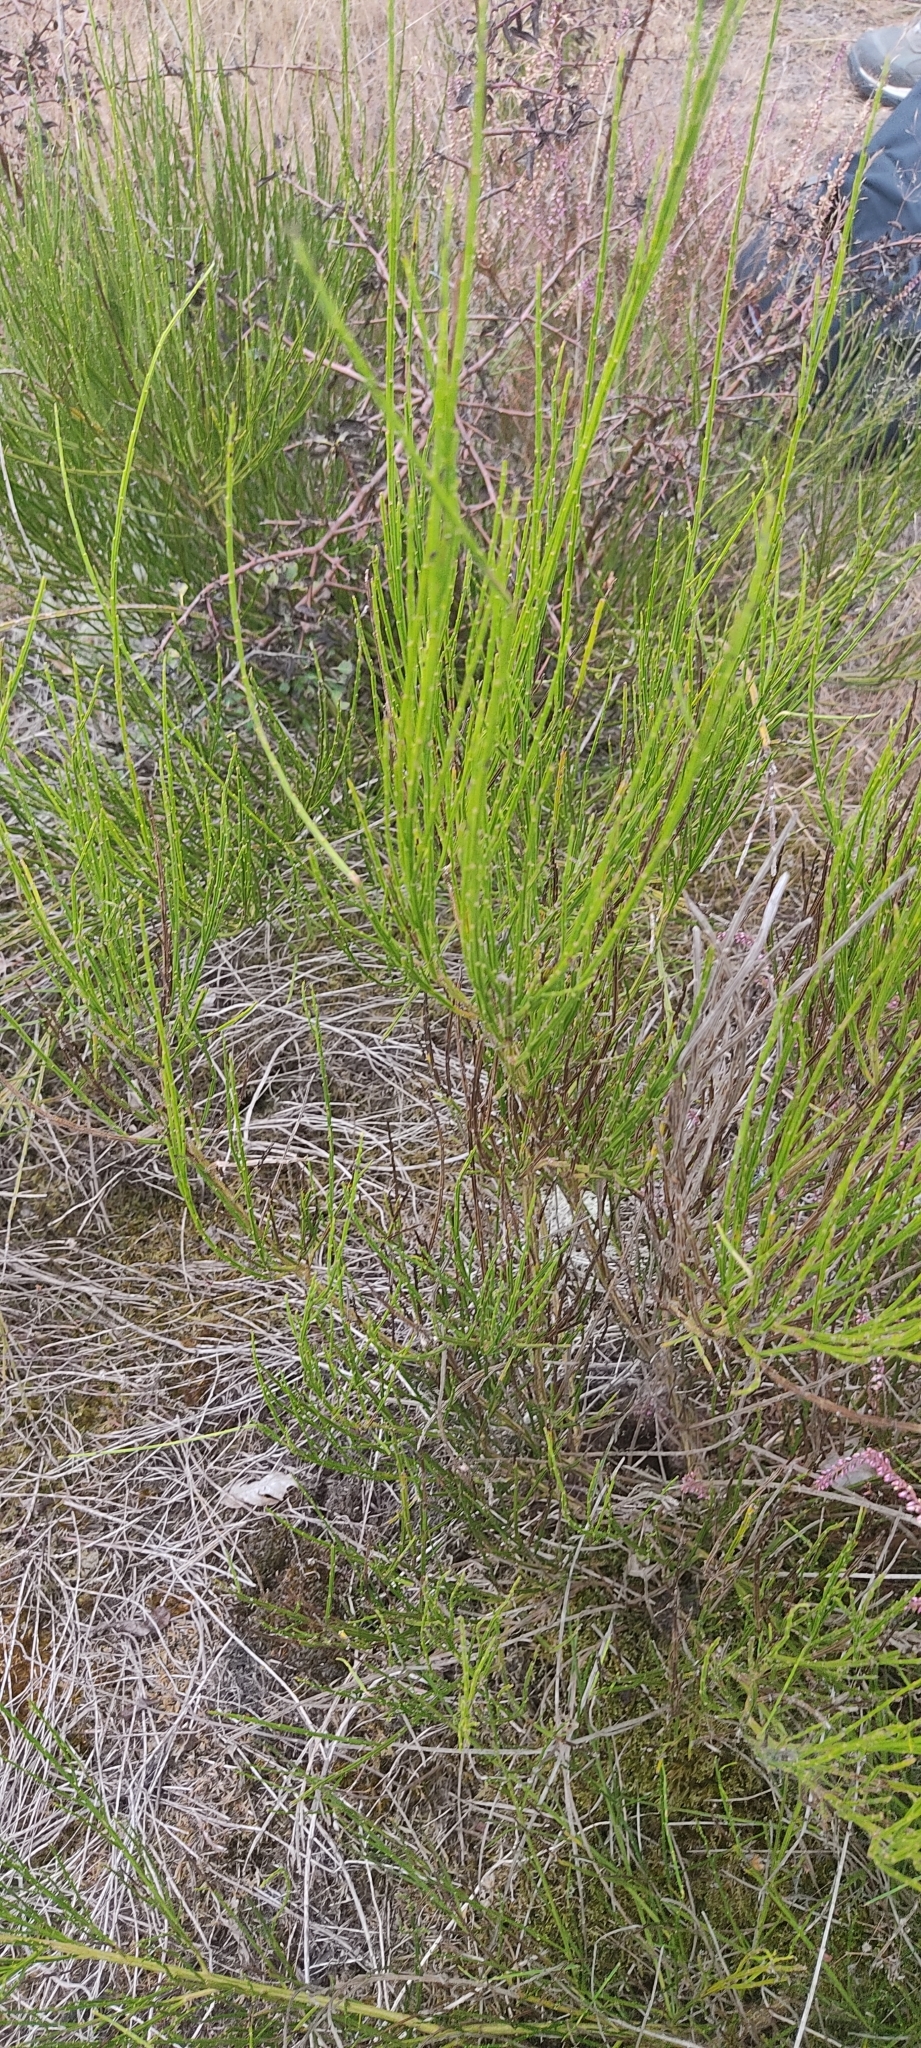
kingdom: Plantae
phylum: Tracheophyta
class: Magnoliopsida
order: Fabales
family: Fabaceae
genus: Cytisus
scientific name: Cytisus scoparius
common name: Scotch broom
